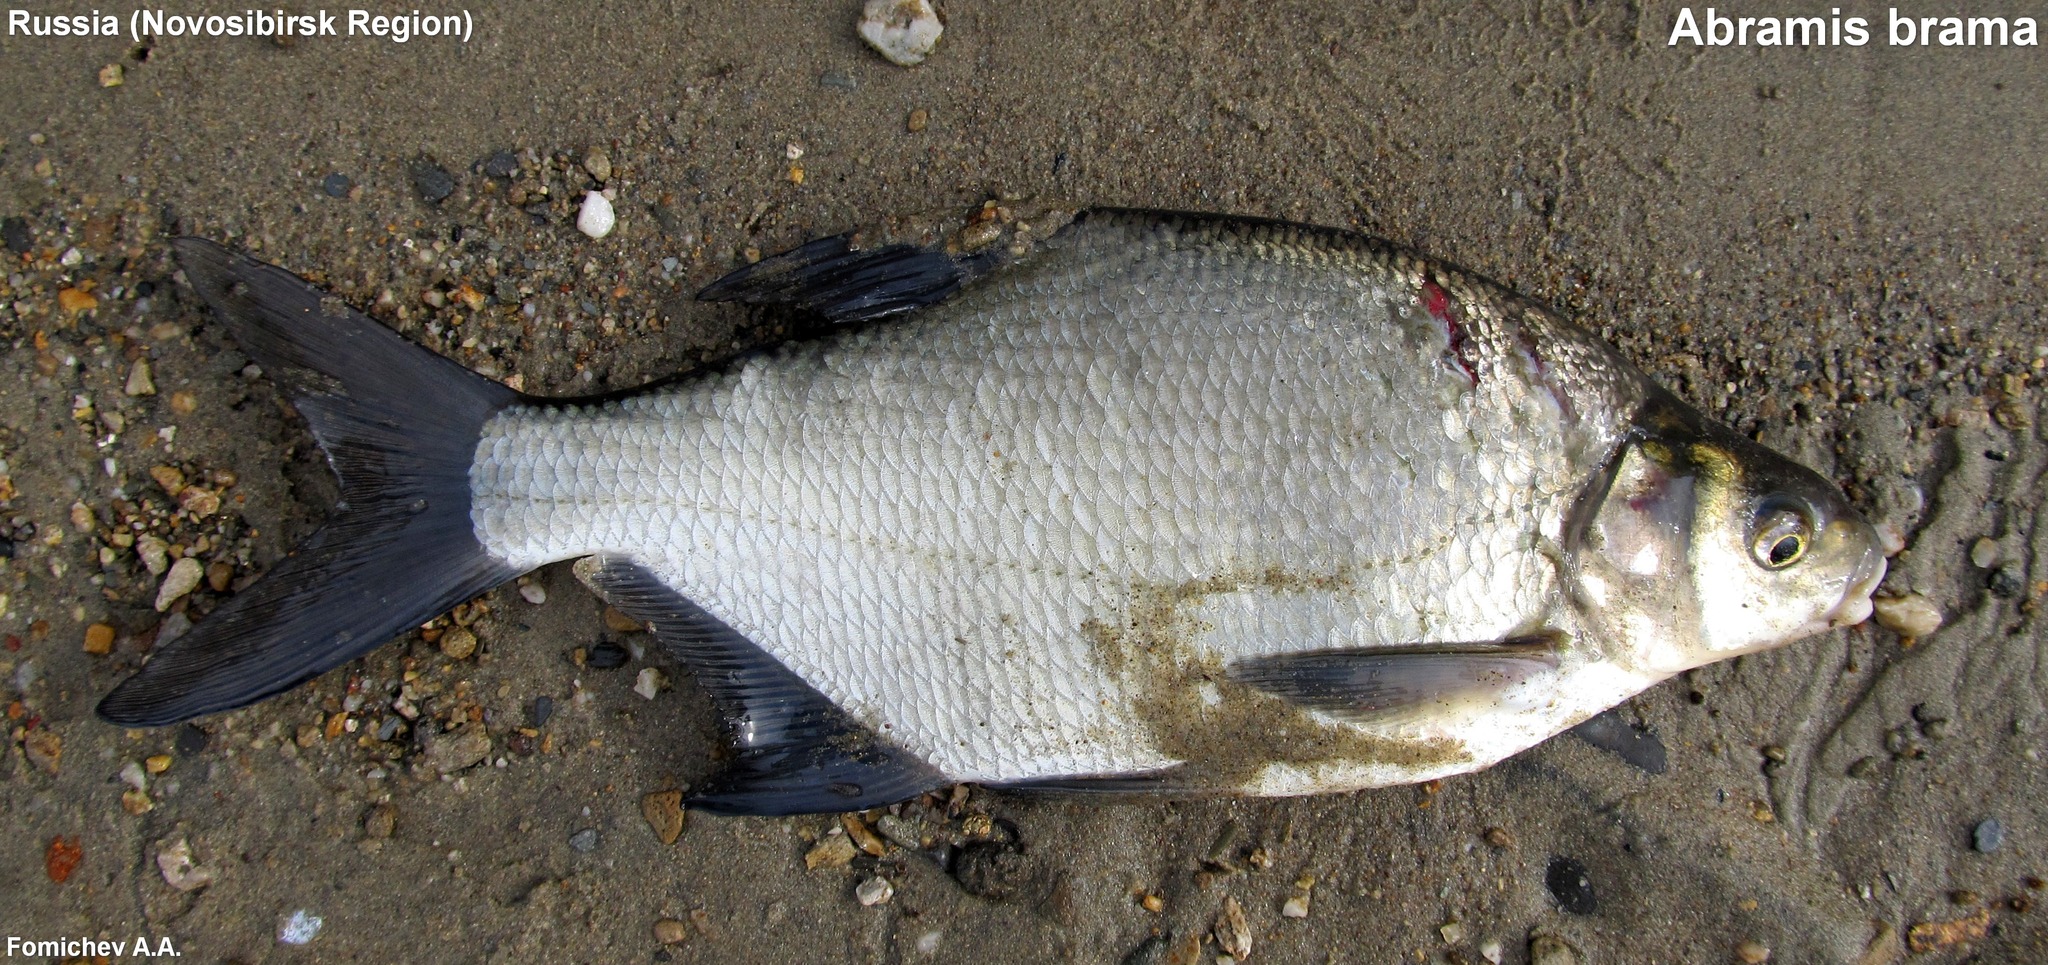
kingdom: Animalia
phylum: Chordata
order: Cypriniformes
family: Cyprinidae
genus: Abramis
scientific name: Abramis brama
